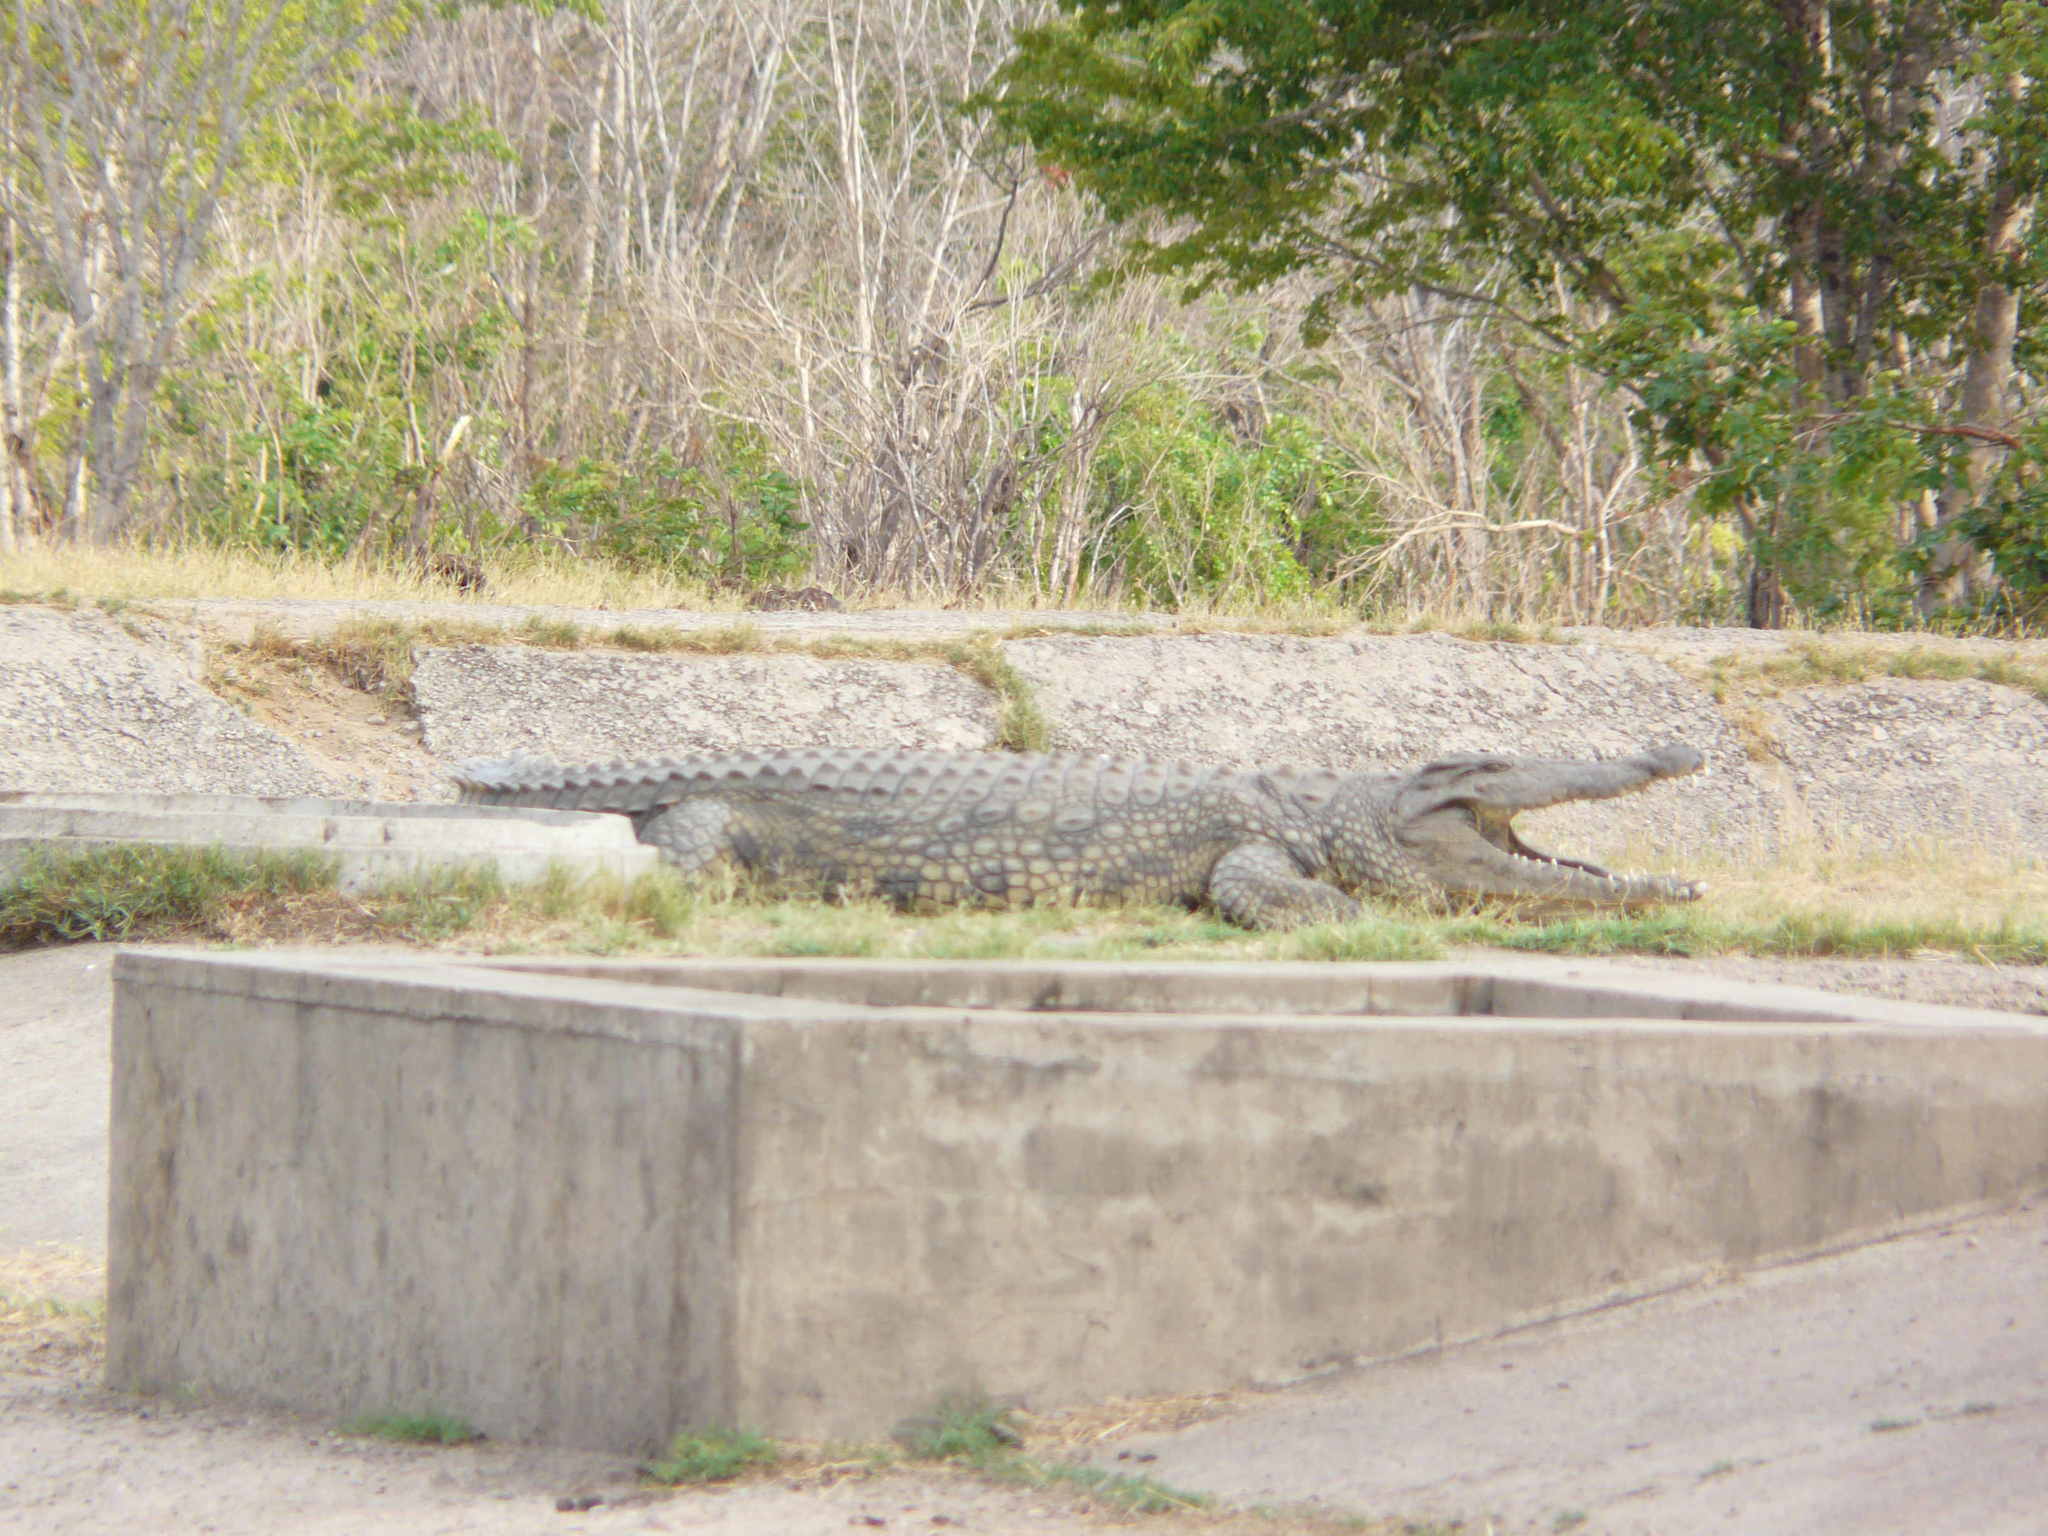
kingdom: Animalia
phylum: Chordata
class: Crocodylia
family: Crocodylidae
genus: Crocodylus
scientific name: Crocodylus niloticus
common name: Nile crocodile
